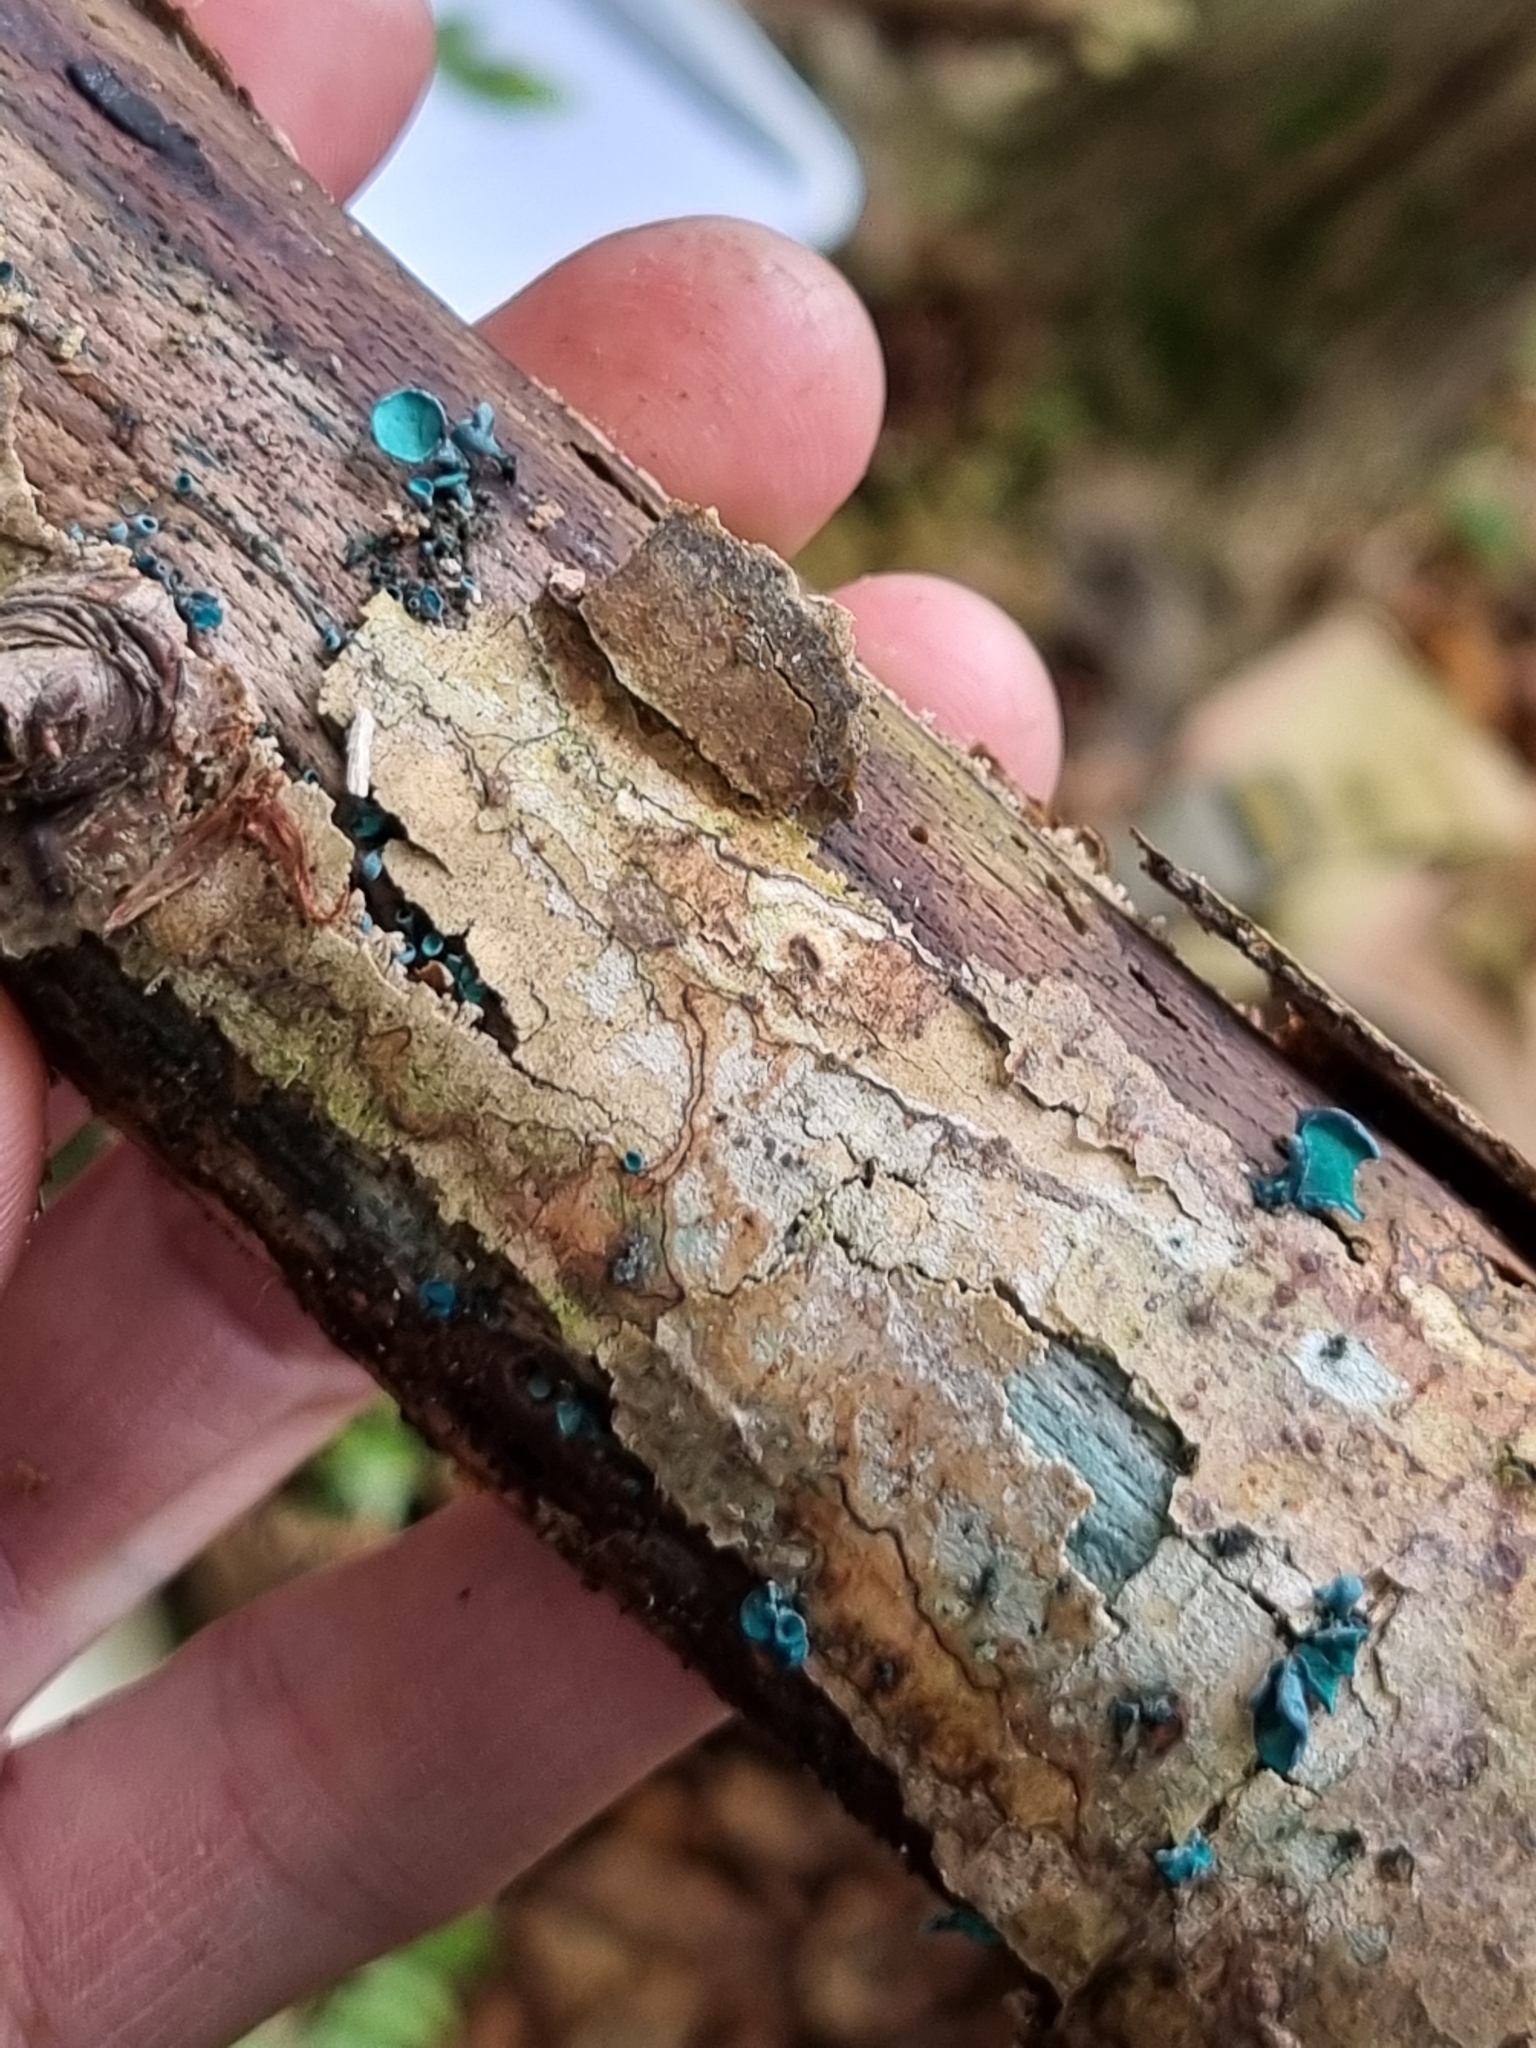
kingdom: Fungi
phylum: Ascomycota
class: Leotiomycetes
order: Helotiales
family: Chlorociboriaceae
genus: Chlorociboria
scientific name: Chlorociboria aeruginascens
